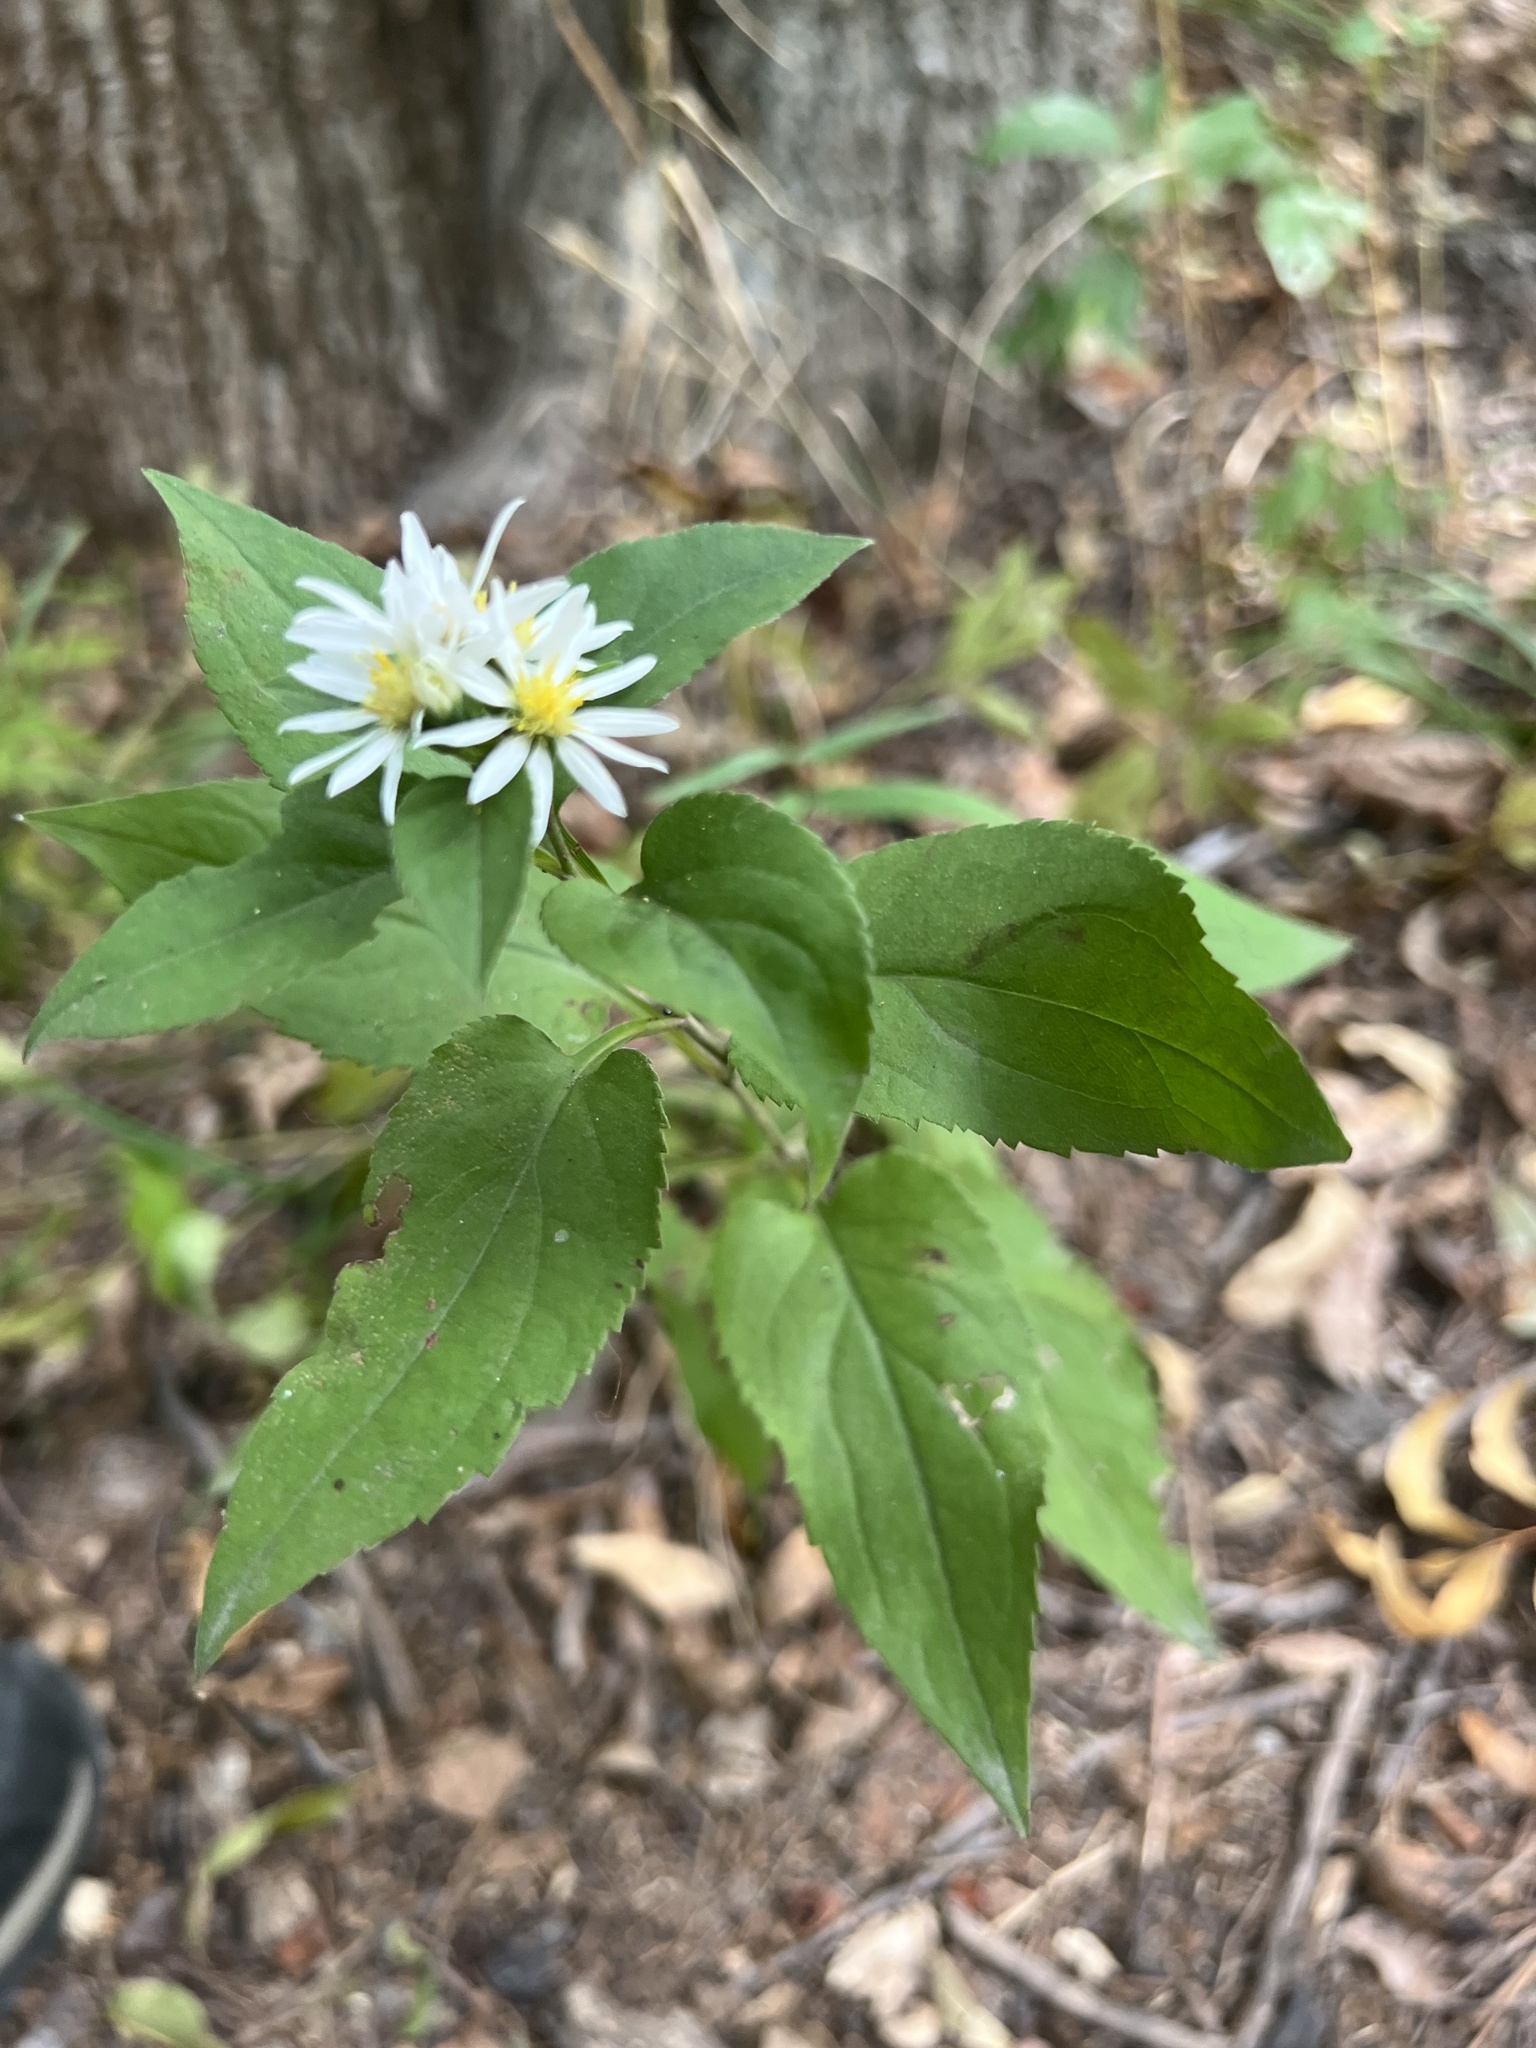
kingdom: Plantae
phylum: Tracheophyta
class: Magnoliopsida
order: Asterales
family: Asteraceae
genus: Symphyotrichum
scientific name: Symphyotrichum drummondii
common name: Drummond's aster
